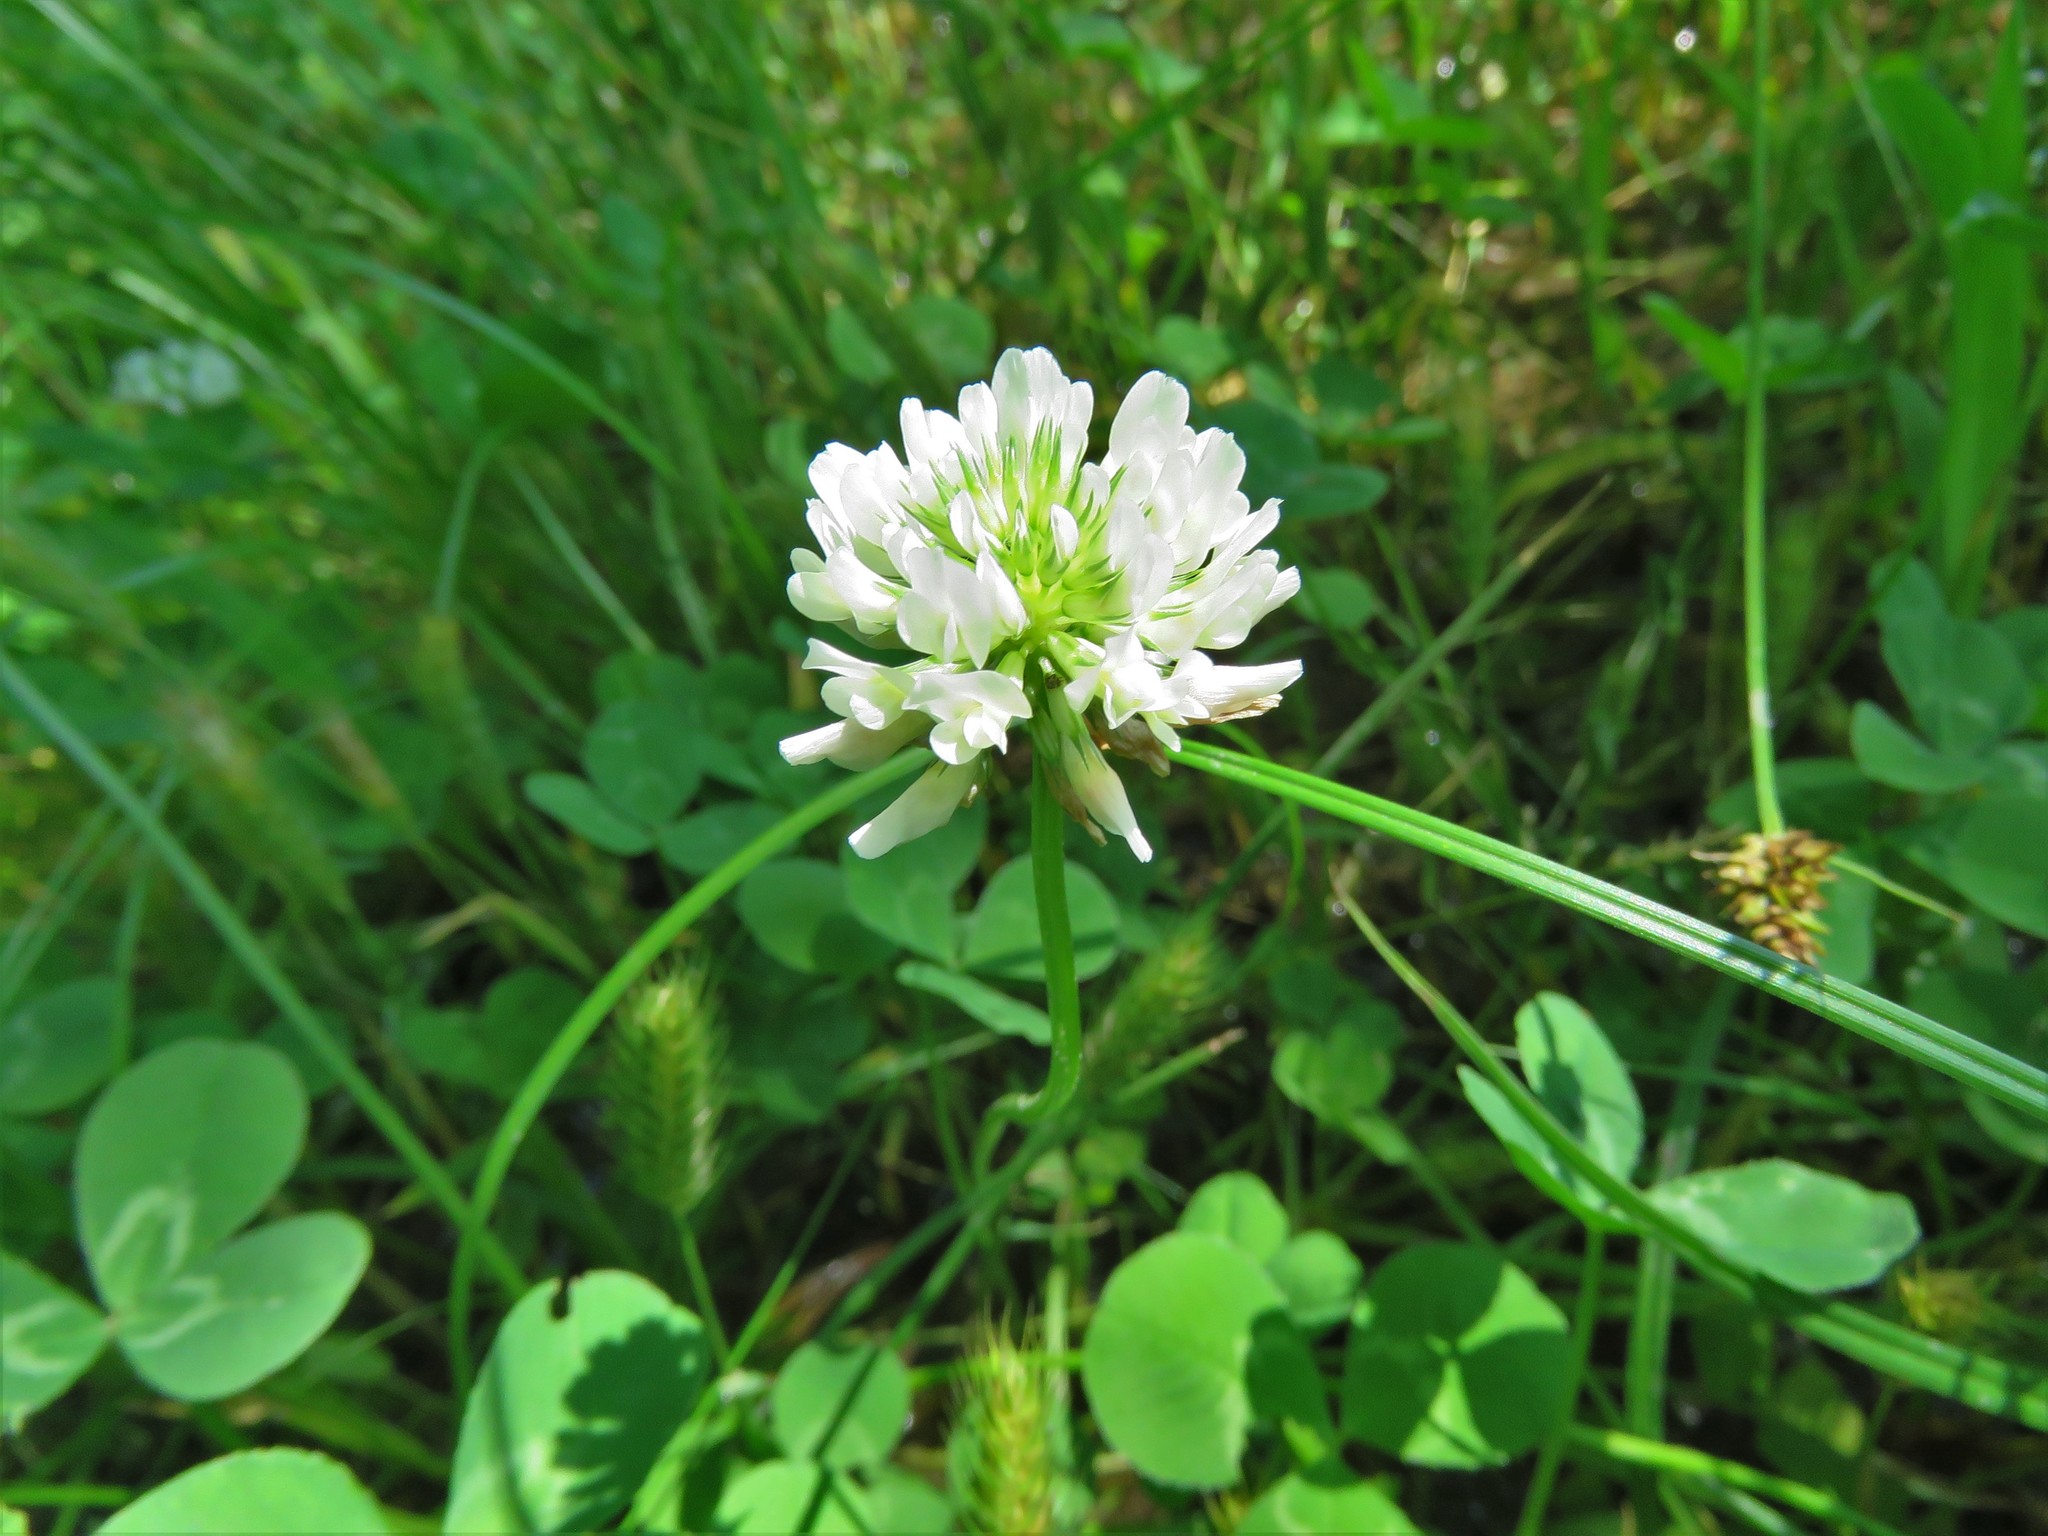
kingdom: Plantae
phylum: Tracheophyta
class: Magnoliopsida
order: Fabales
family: Fabaceae
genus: Trifolium
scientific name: Trifolium repens
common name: White clover
